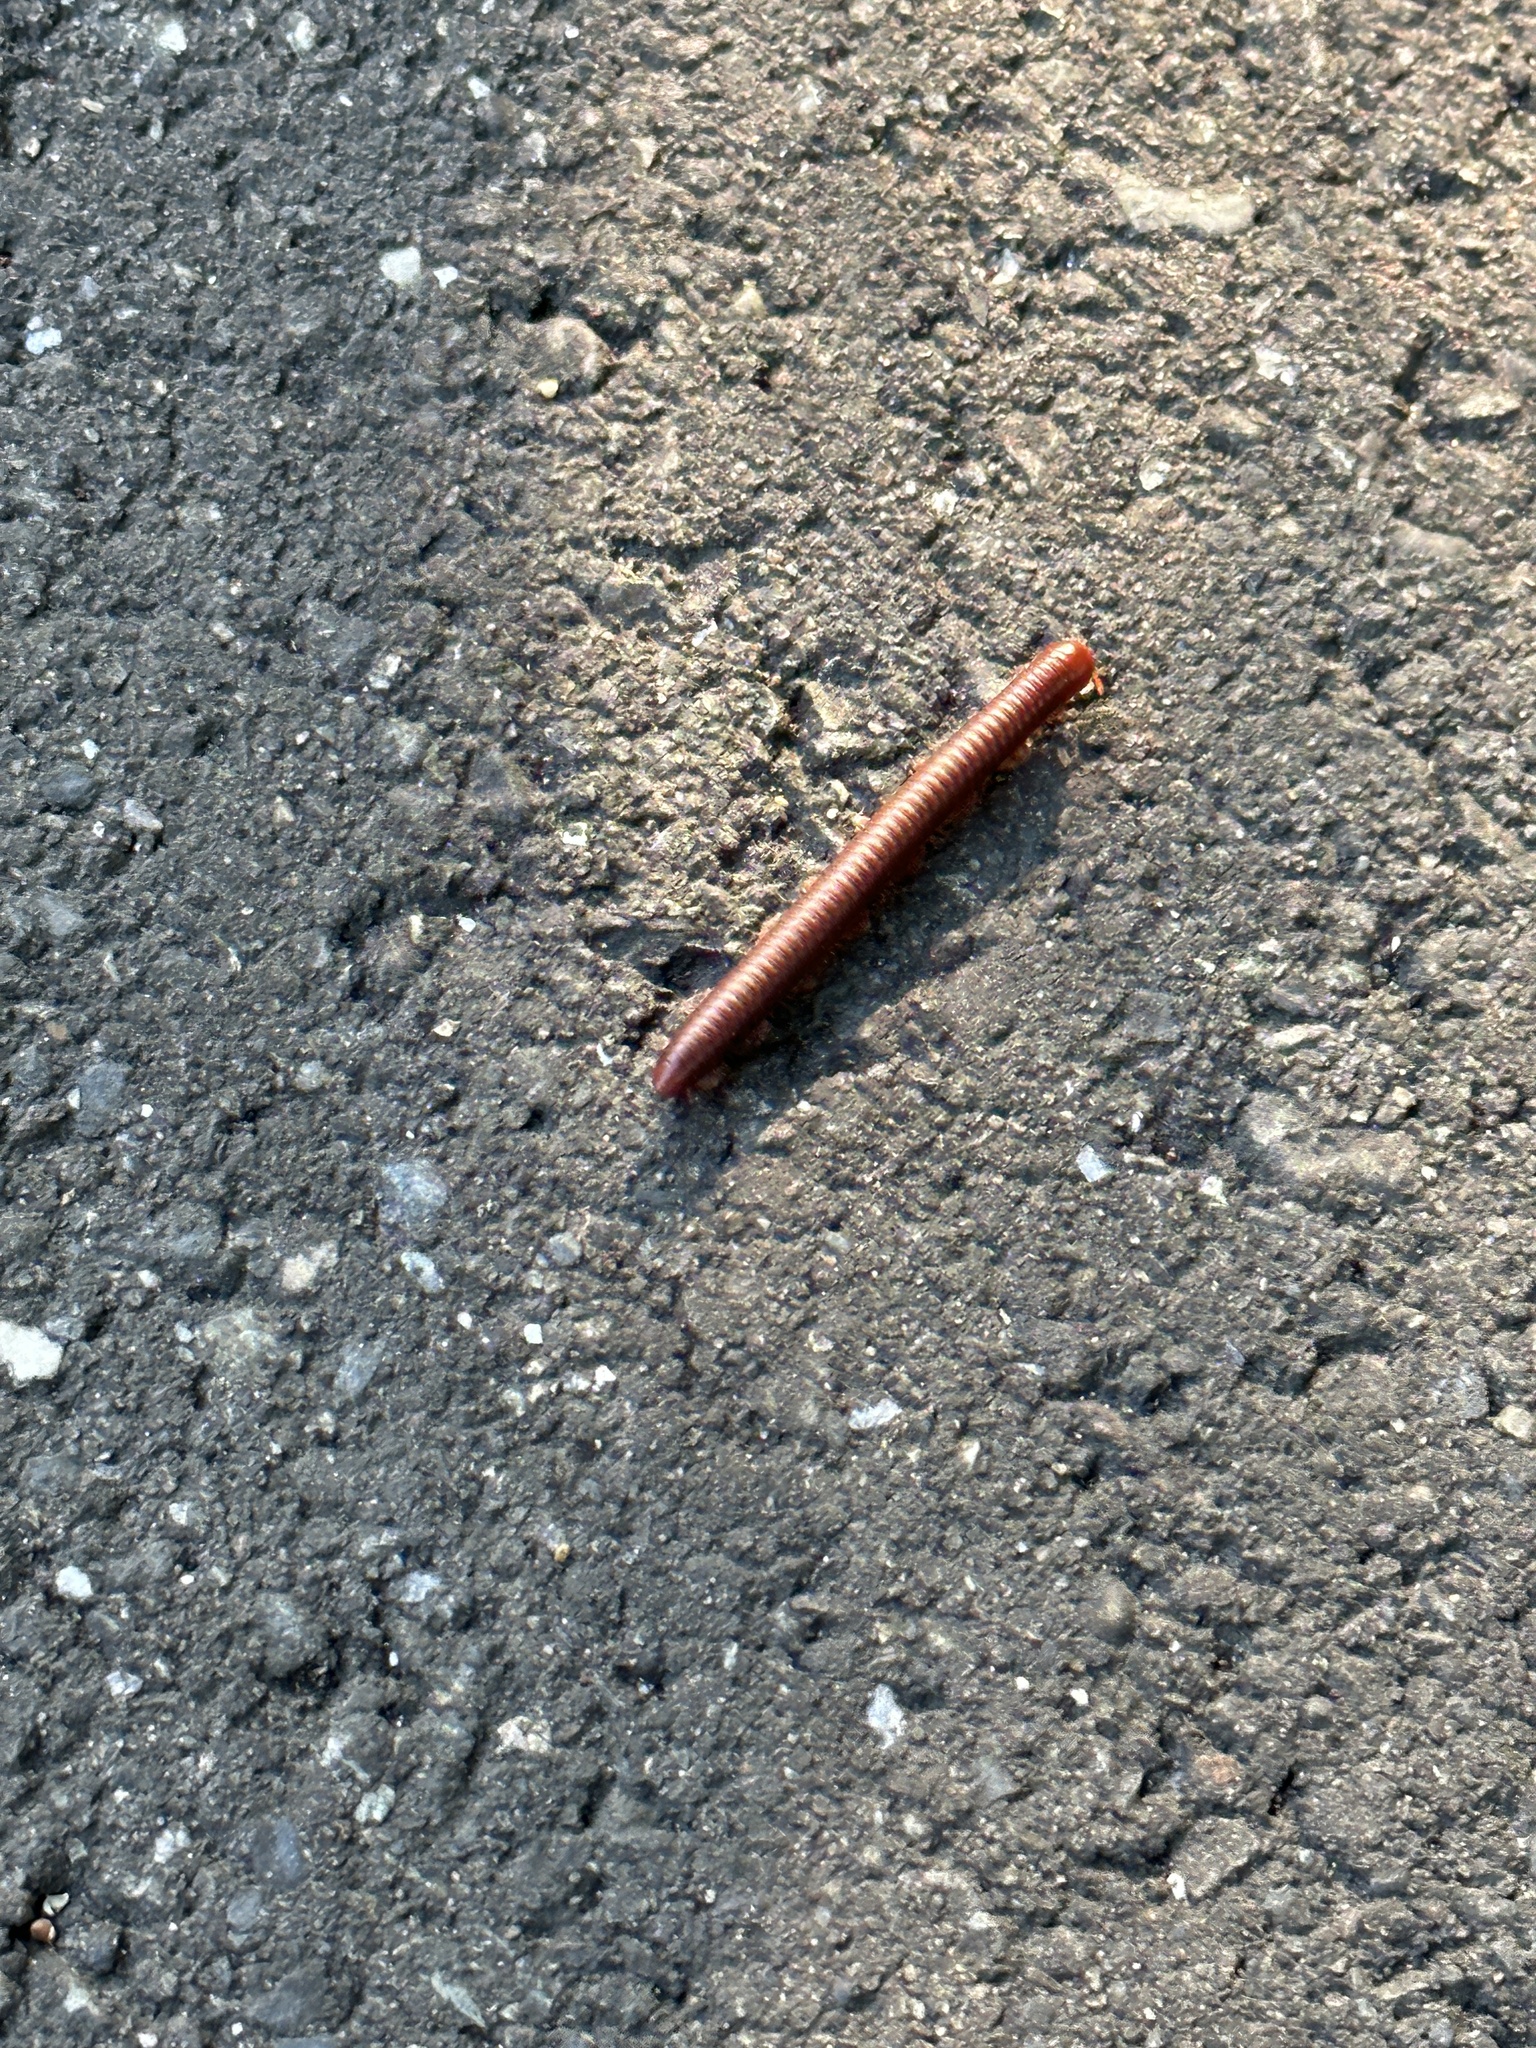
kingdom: Animalia
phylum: Arthropoda
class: Diplopoda
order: Spirobolida
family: Pachybolidae
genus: Trigoniulus
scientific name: Trigoniulus corallinus
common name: Millipede
